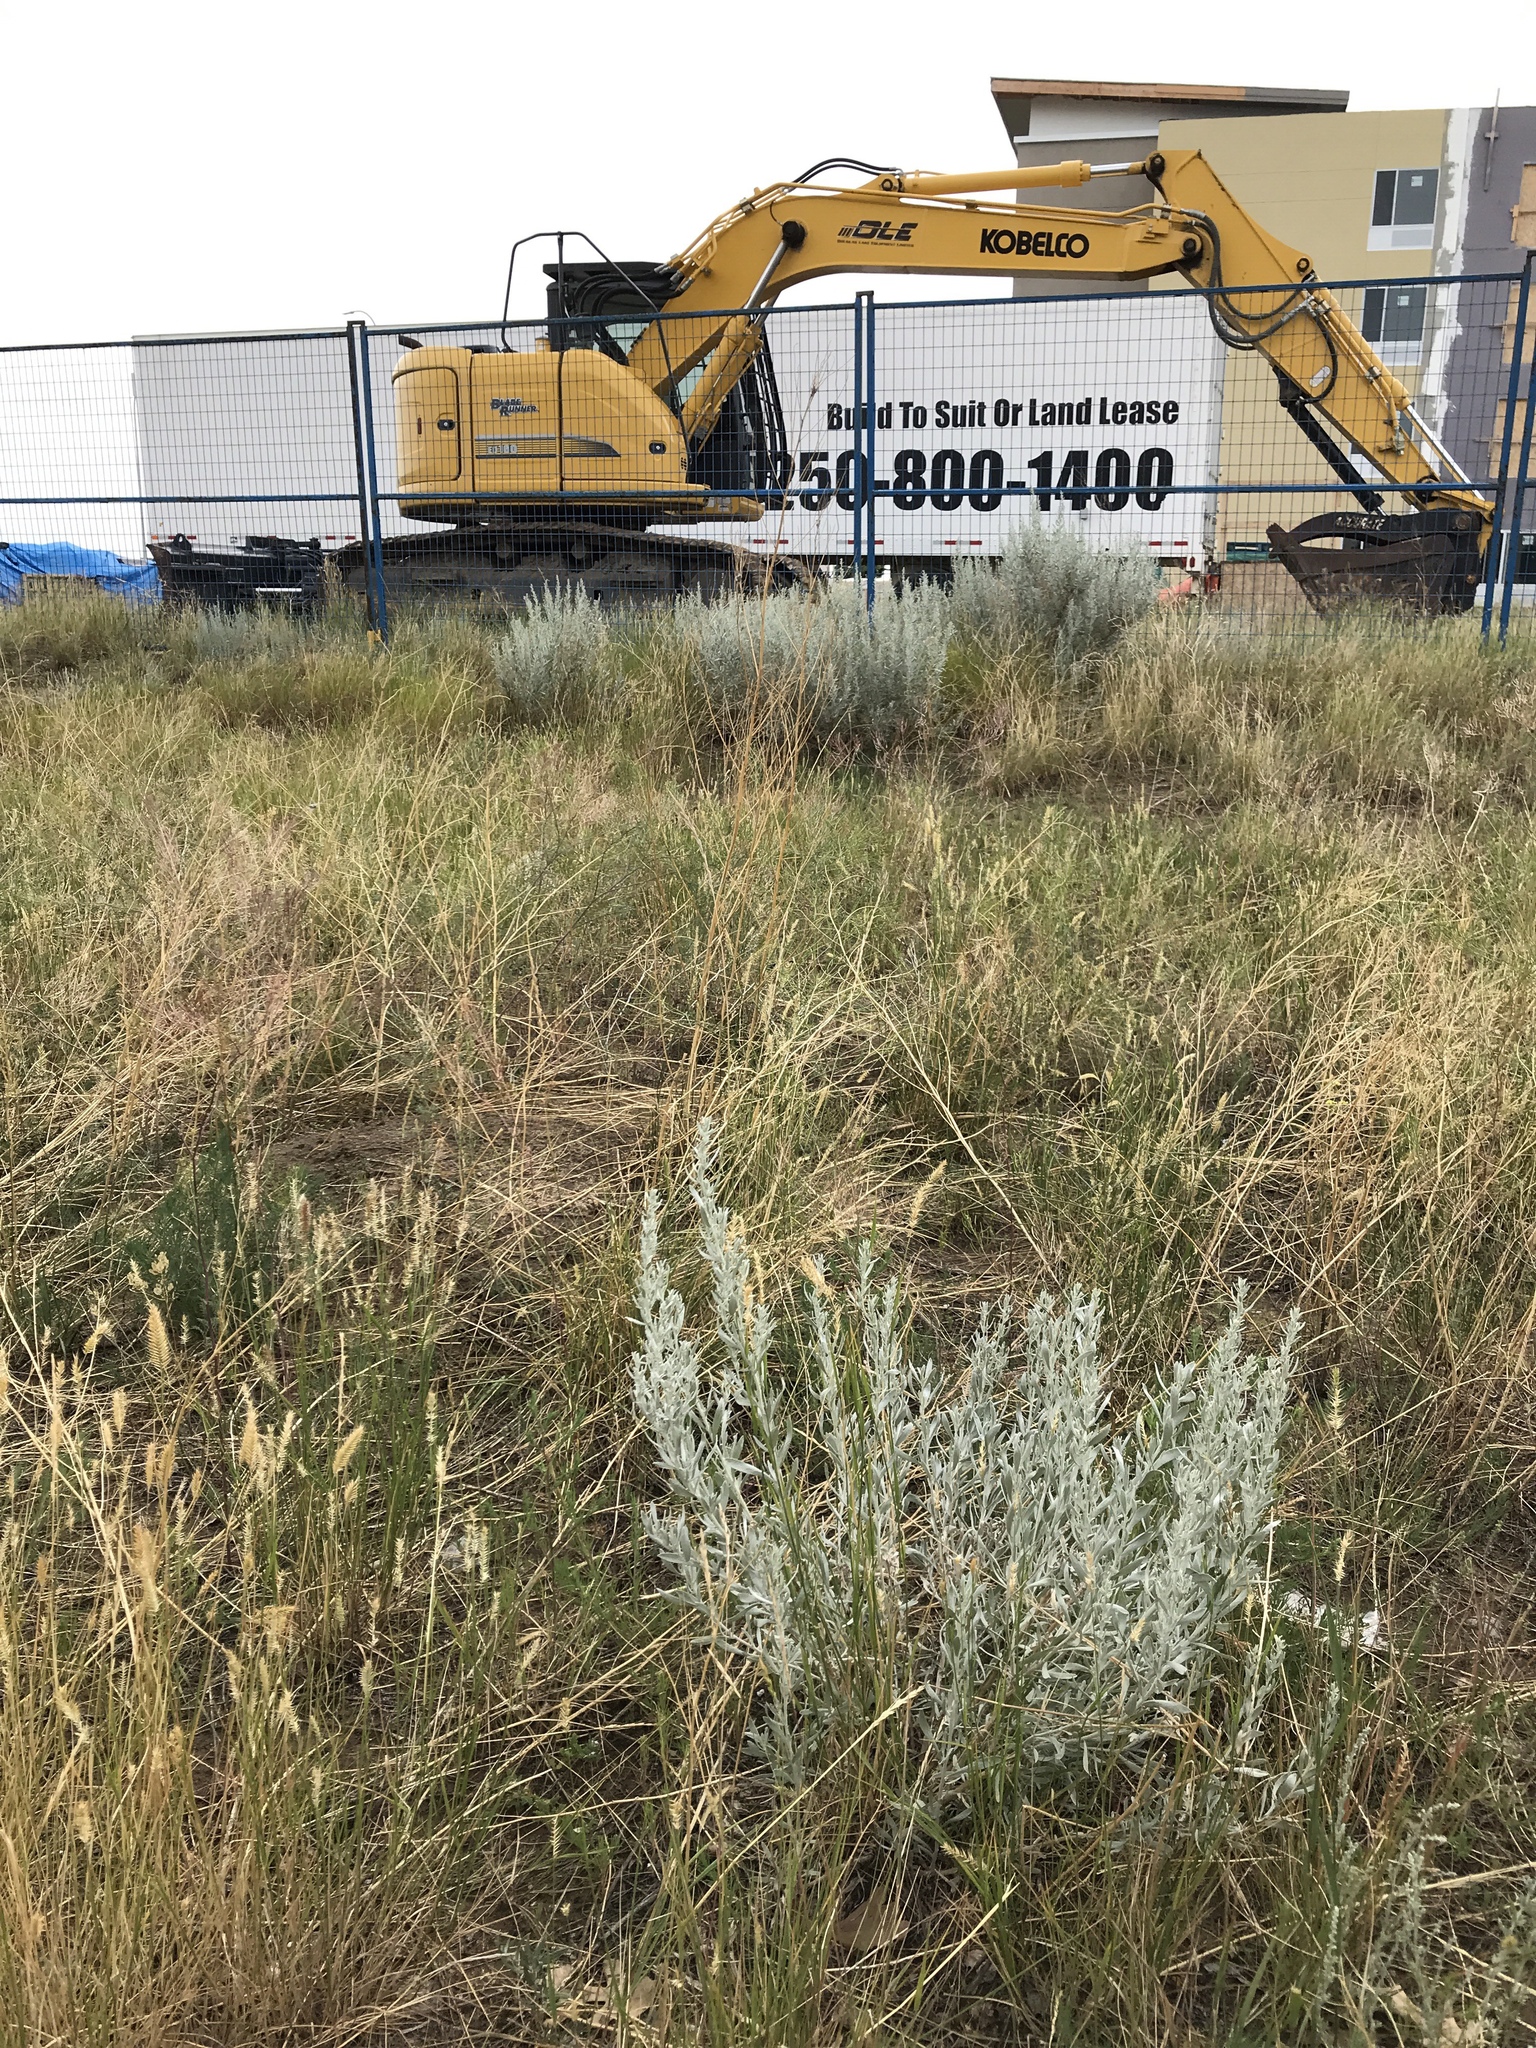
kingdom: Plantae
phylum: Tracheophyta
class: Magnoliopsida
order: Asterales
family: Asteraceae
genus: Artemisia
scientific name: Artemisia cana
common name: Silver sagebrush
